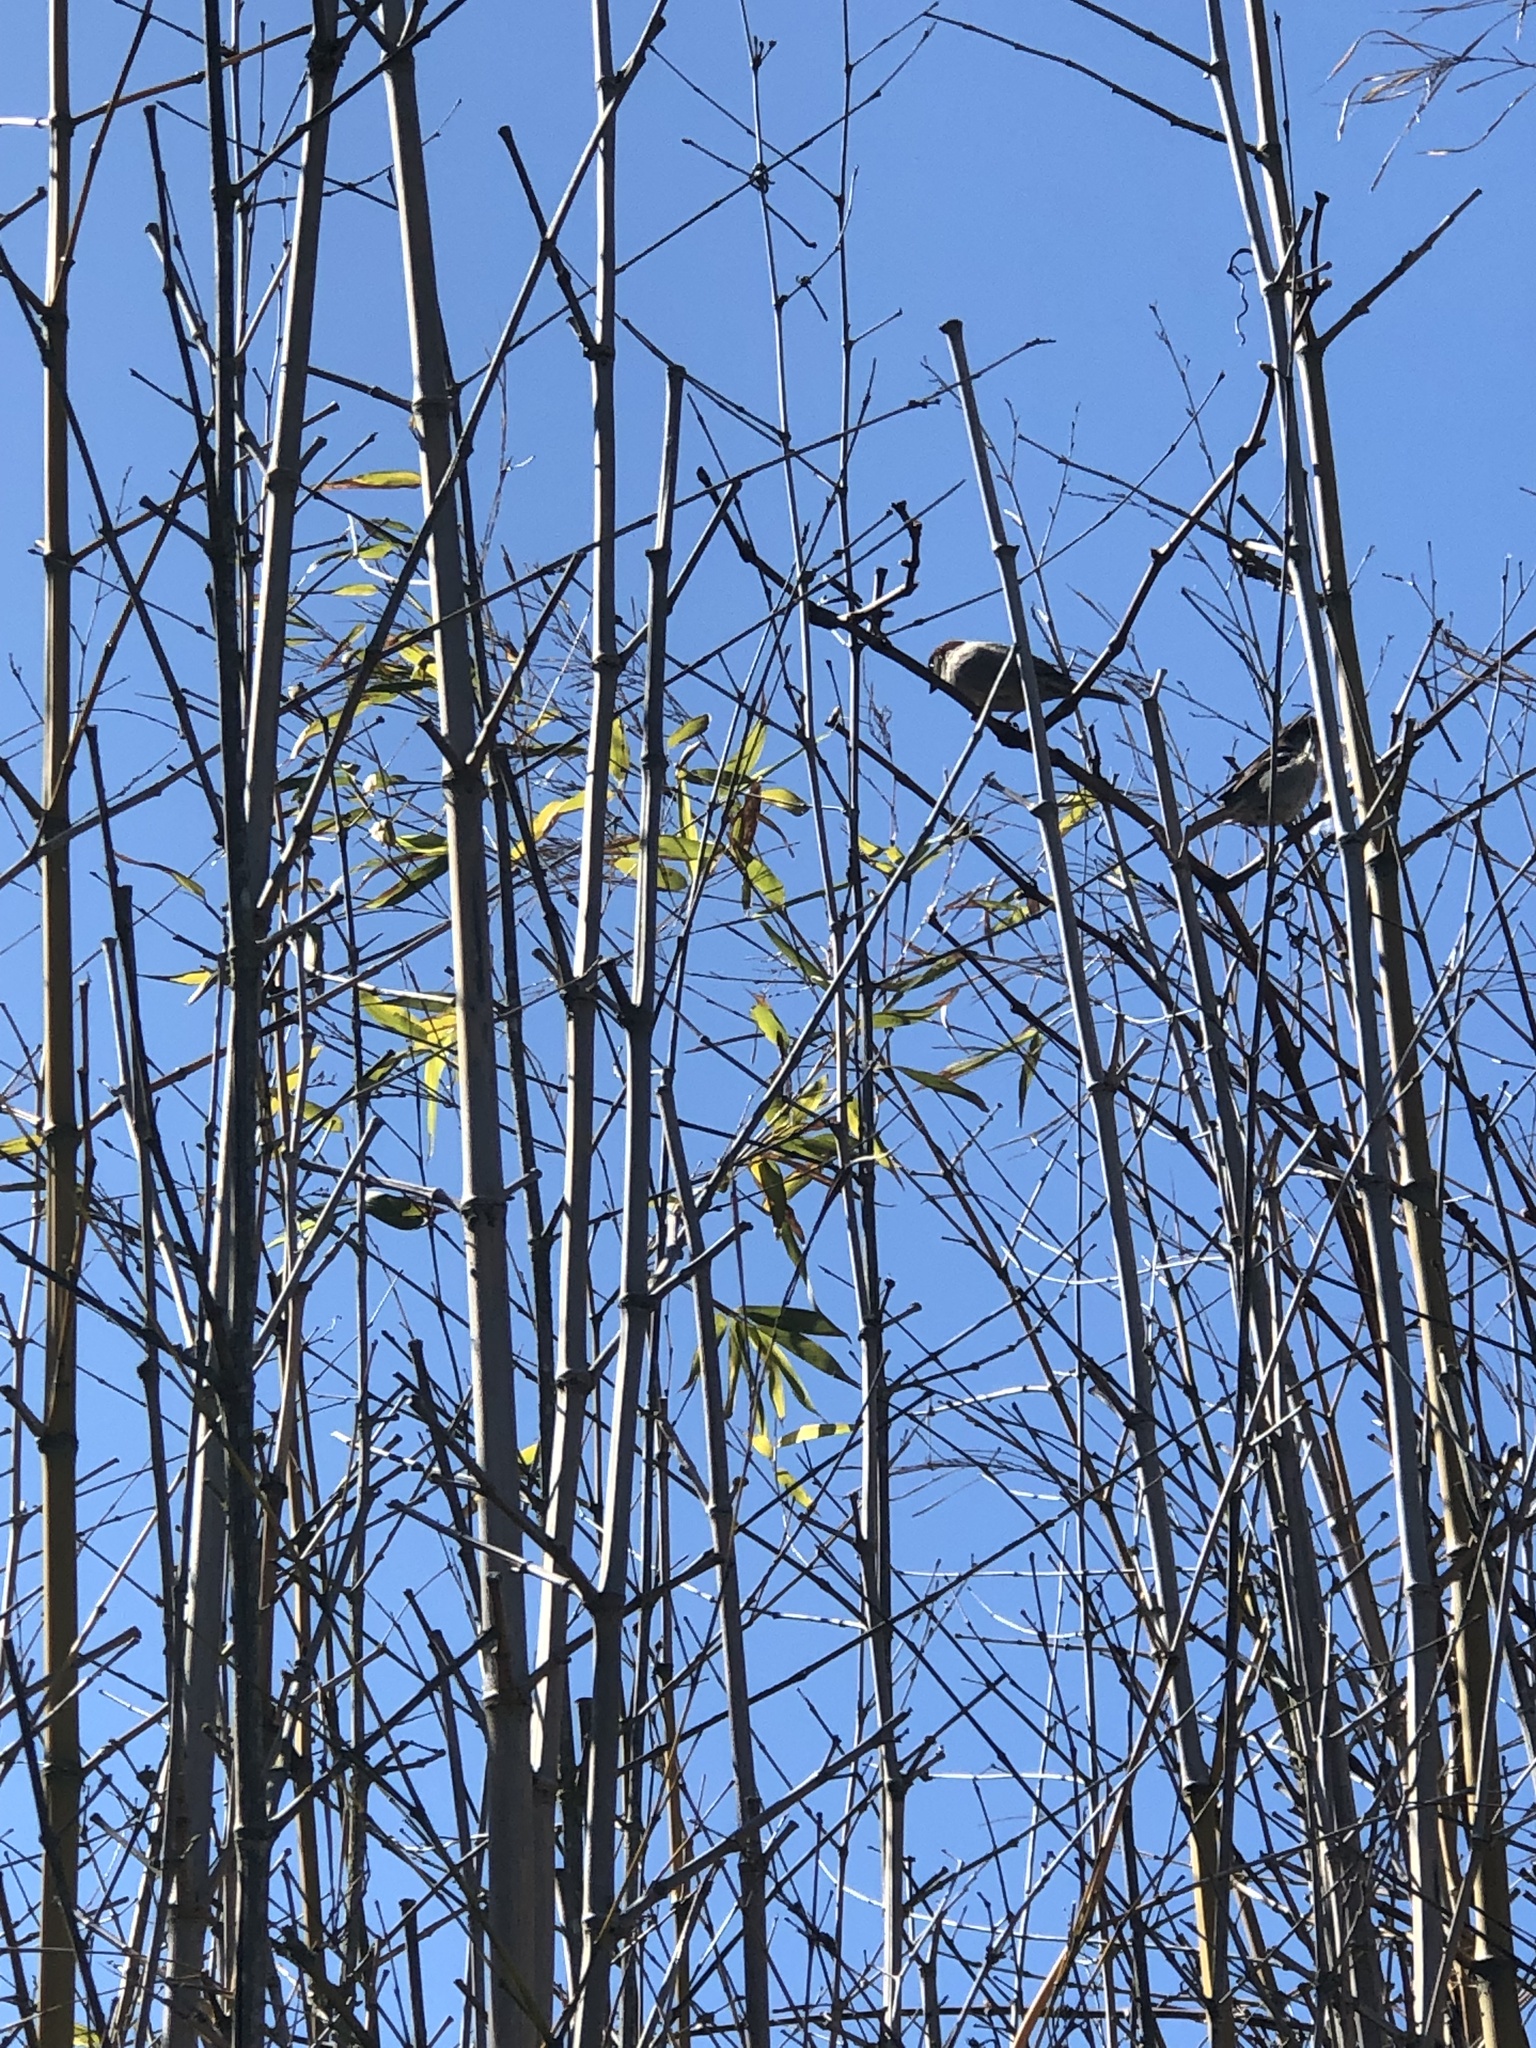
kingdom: Animalia
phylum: Chordata
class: Aves
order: Passeriformes
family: Passeridae
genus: Passer
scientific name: Passer domesticus
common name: House sparrow
